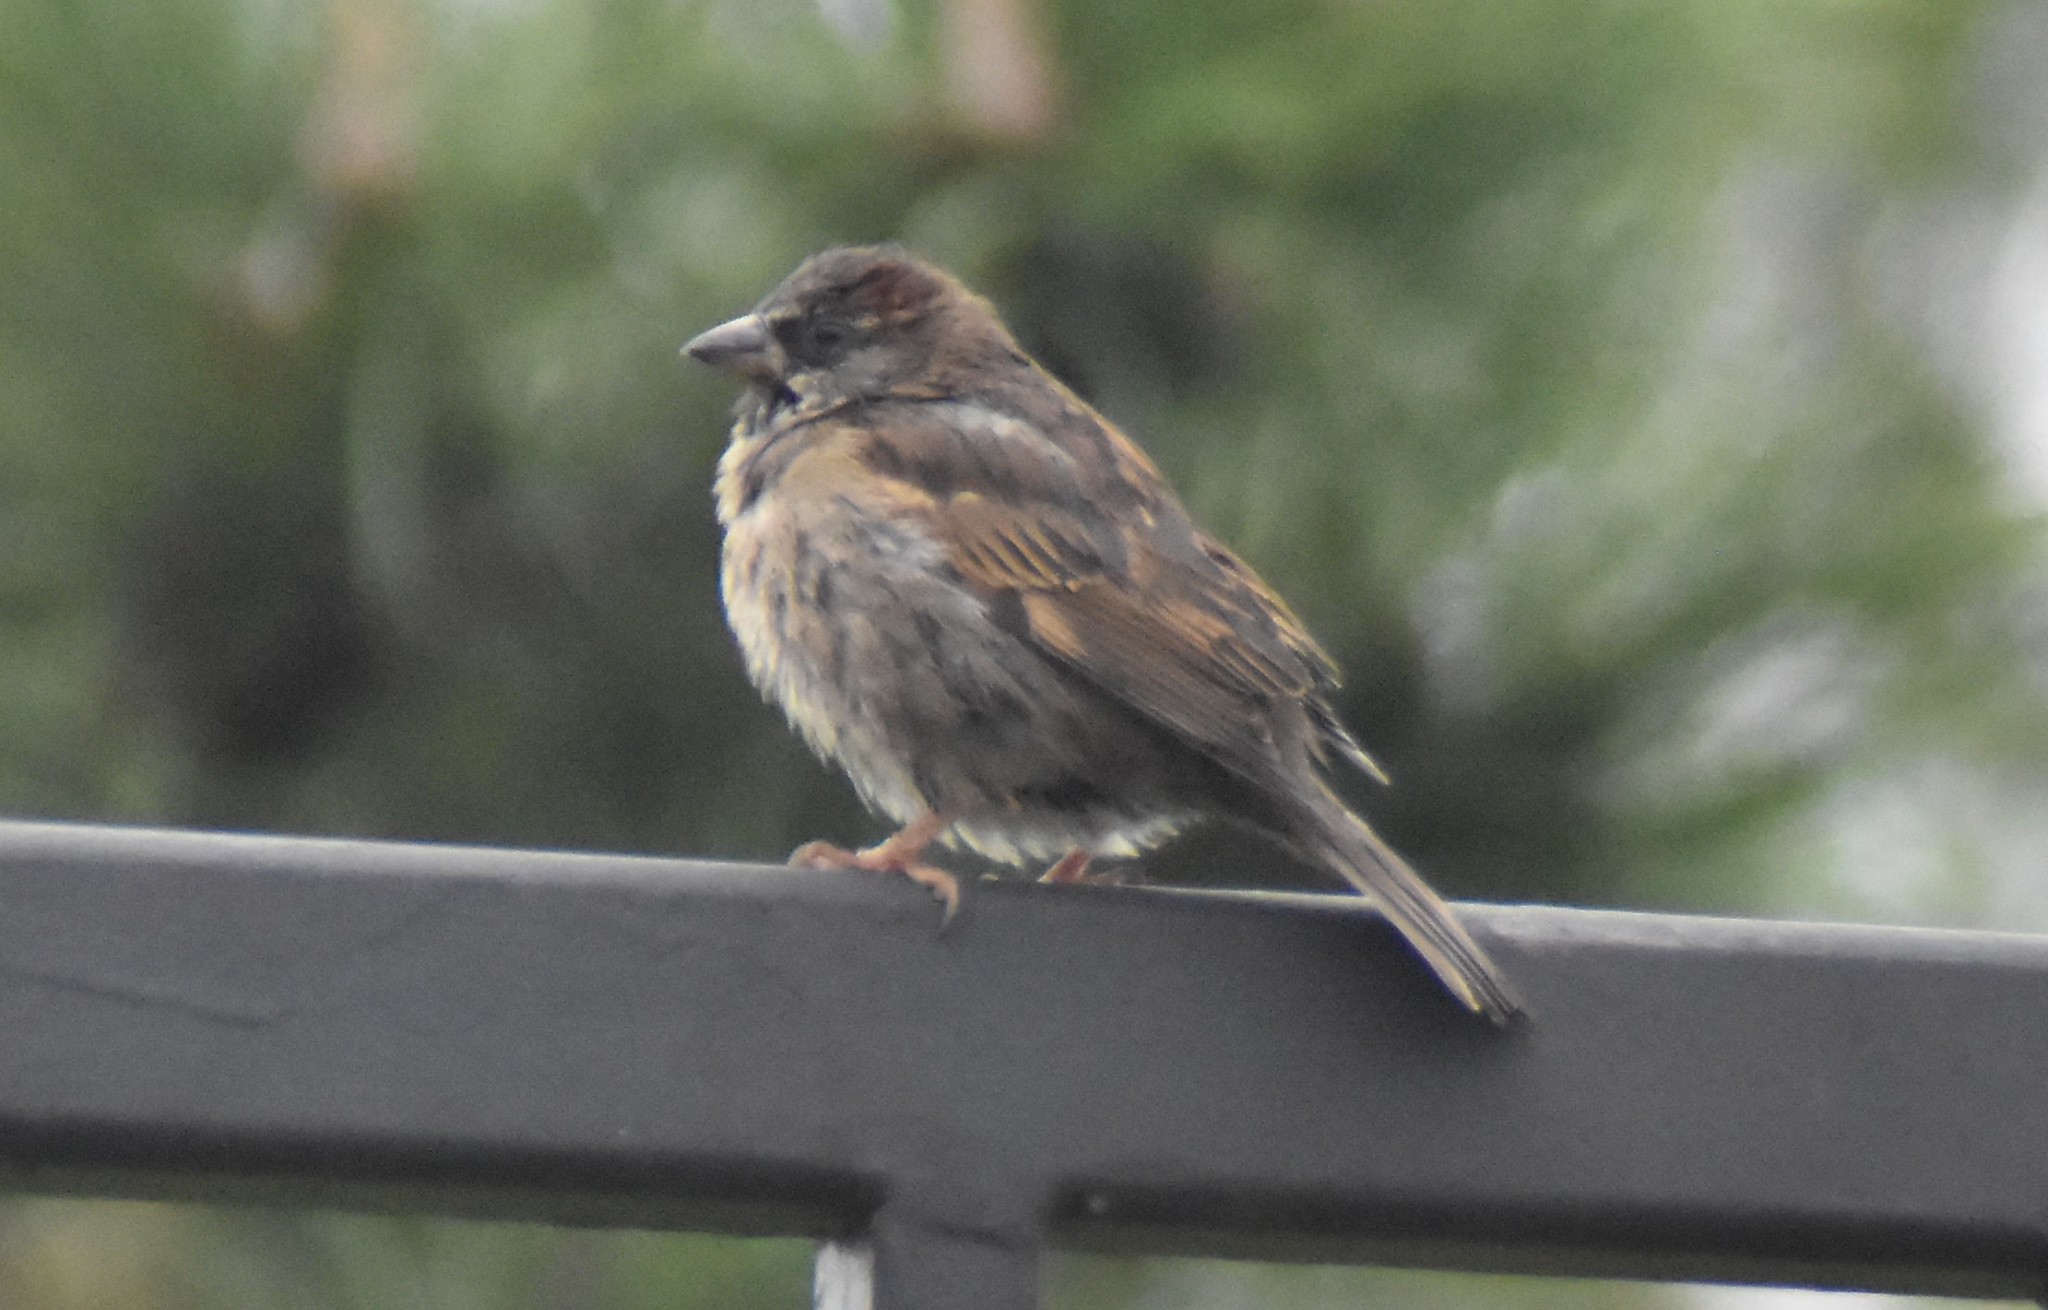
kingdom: Animalia
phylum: Chordata
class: Aves
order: Passeriformes
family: Passeridae
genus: Passer
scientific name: Passer domesticus
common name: House sparrow
